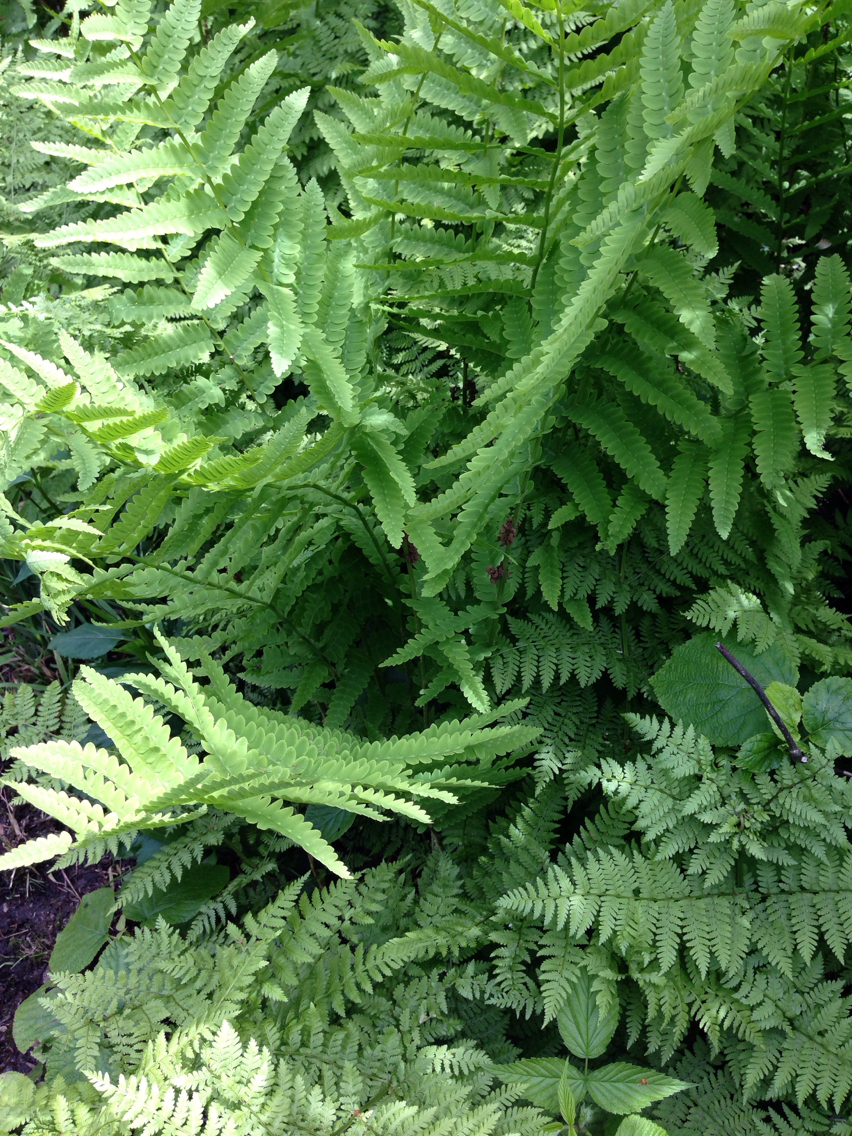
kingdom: Plantae
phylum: Tracheophyta
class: Polypodiopsida
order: Osmundales
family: Osmundaceae
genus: Claytosmunda
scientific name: Claytosmunda claytoniana
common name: Clayton's fern
